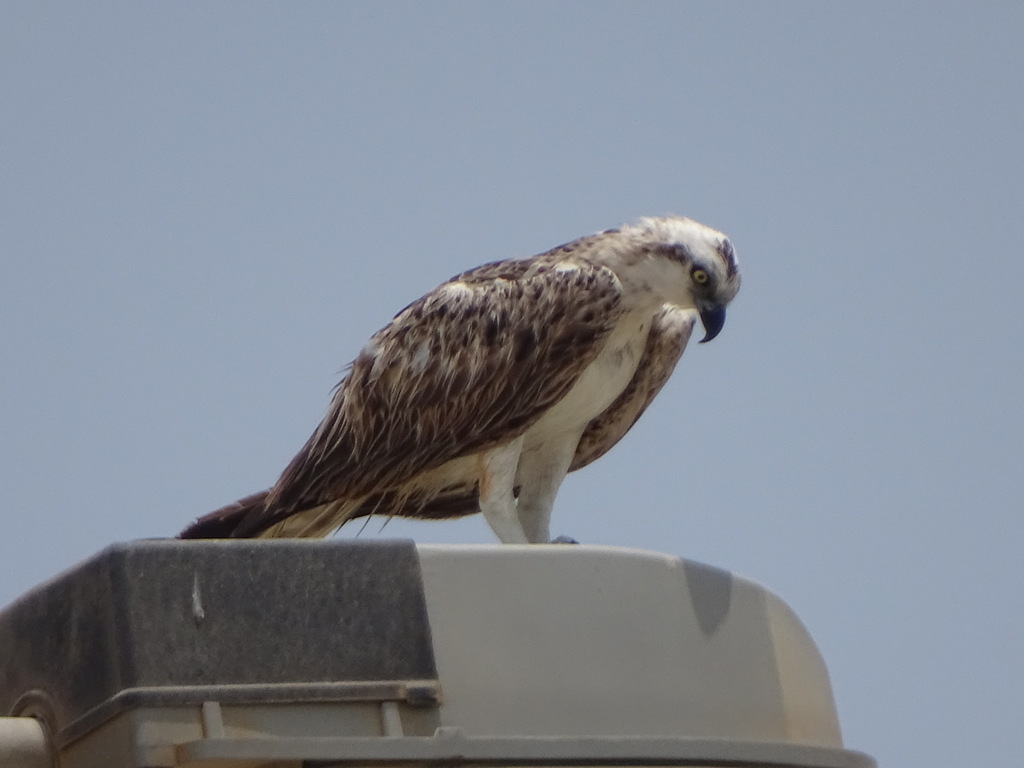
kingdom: Animalia
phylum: Chordata
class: Aves
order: Accipitriformes
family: Pandionidae
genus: Pandion
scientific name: Pandion haliaetus
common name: Osprey
